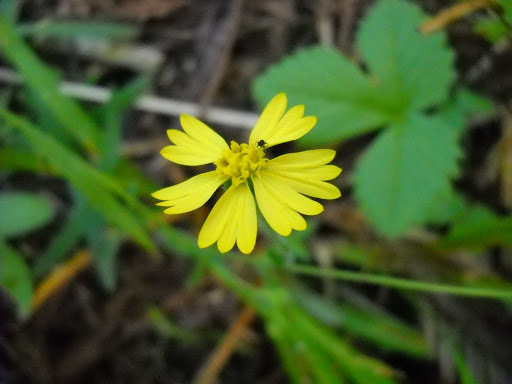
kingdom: Plantae
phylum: Tracheophyta
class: Magnoliopsida
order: Asterales
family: Asteraceae
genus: Anisocarpus
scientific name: Anisocarpus madioides
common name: Woodland madia
